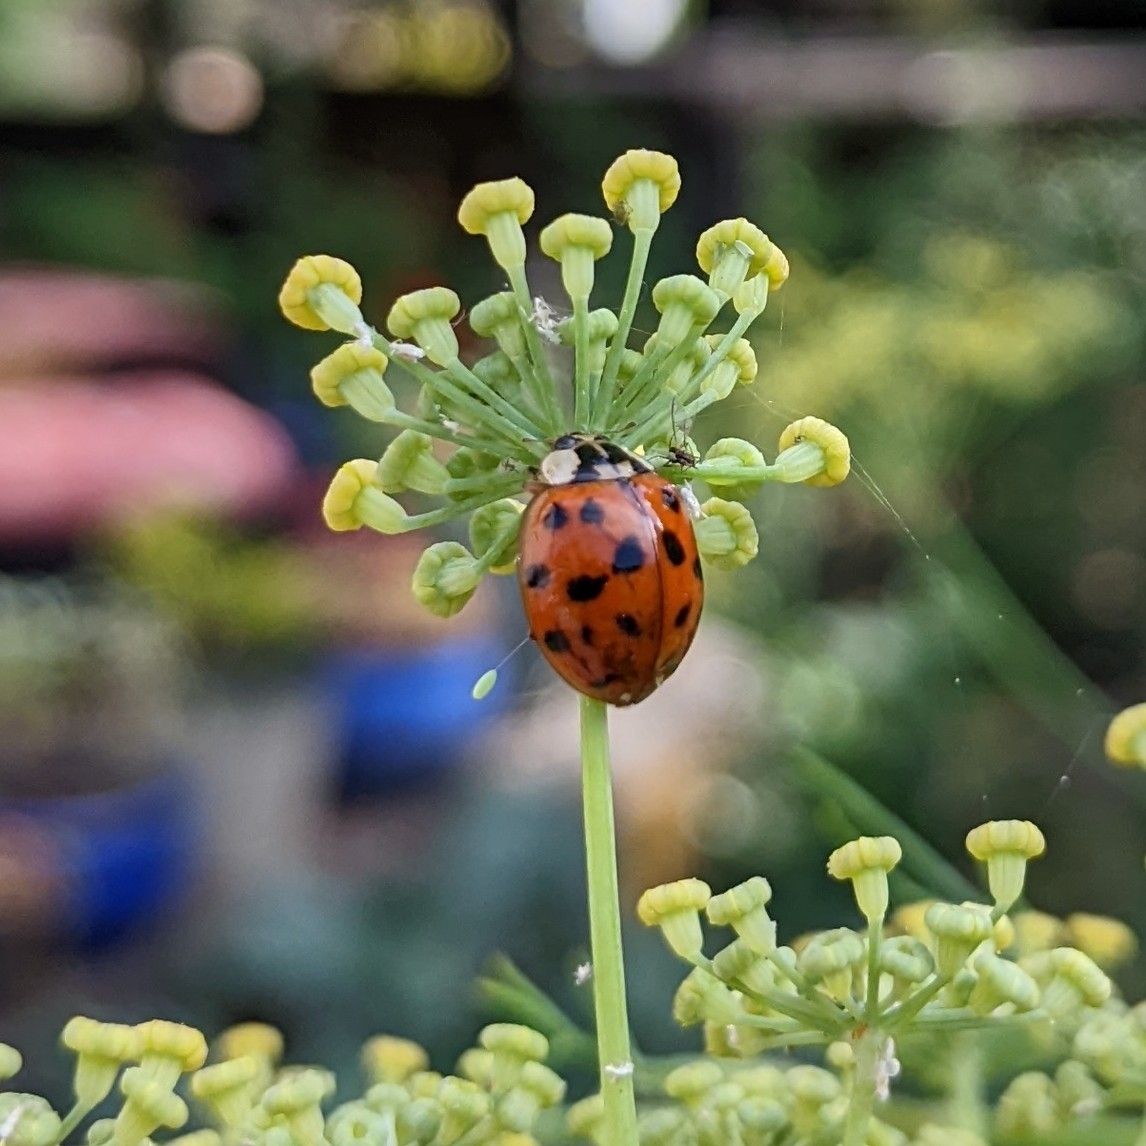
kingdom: Animalia
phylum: Arthropoda
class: Insecta
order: Coleoptera
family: Coccinellidae
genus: Harmonia
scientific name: Harmonia axyridis
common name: Harlequin ladybird
